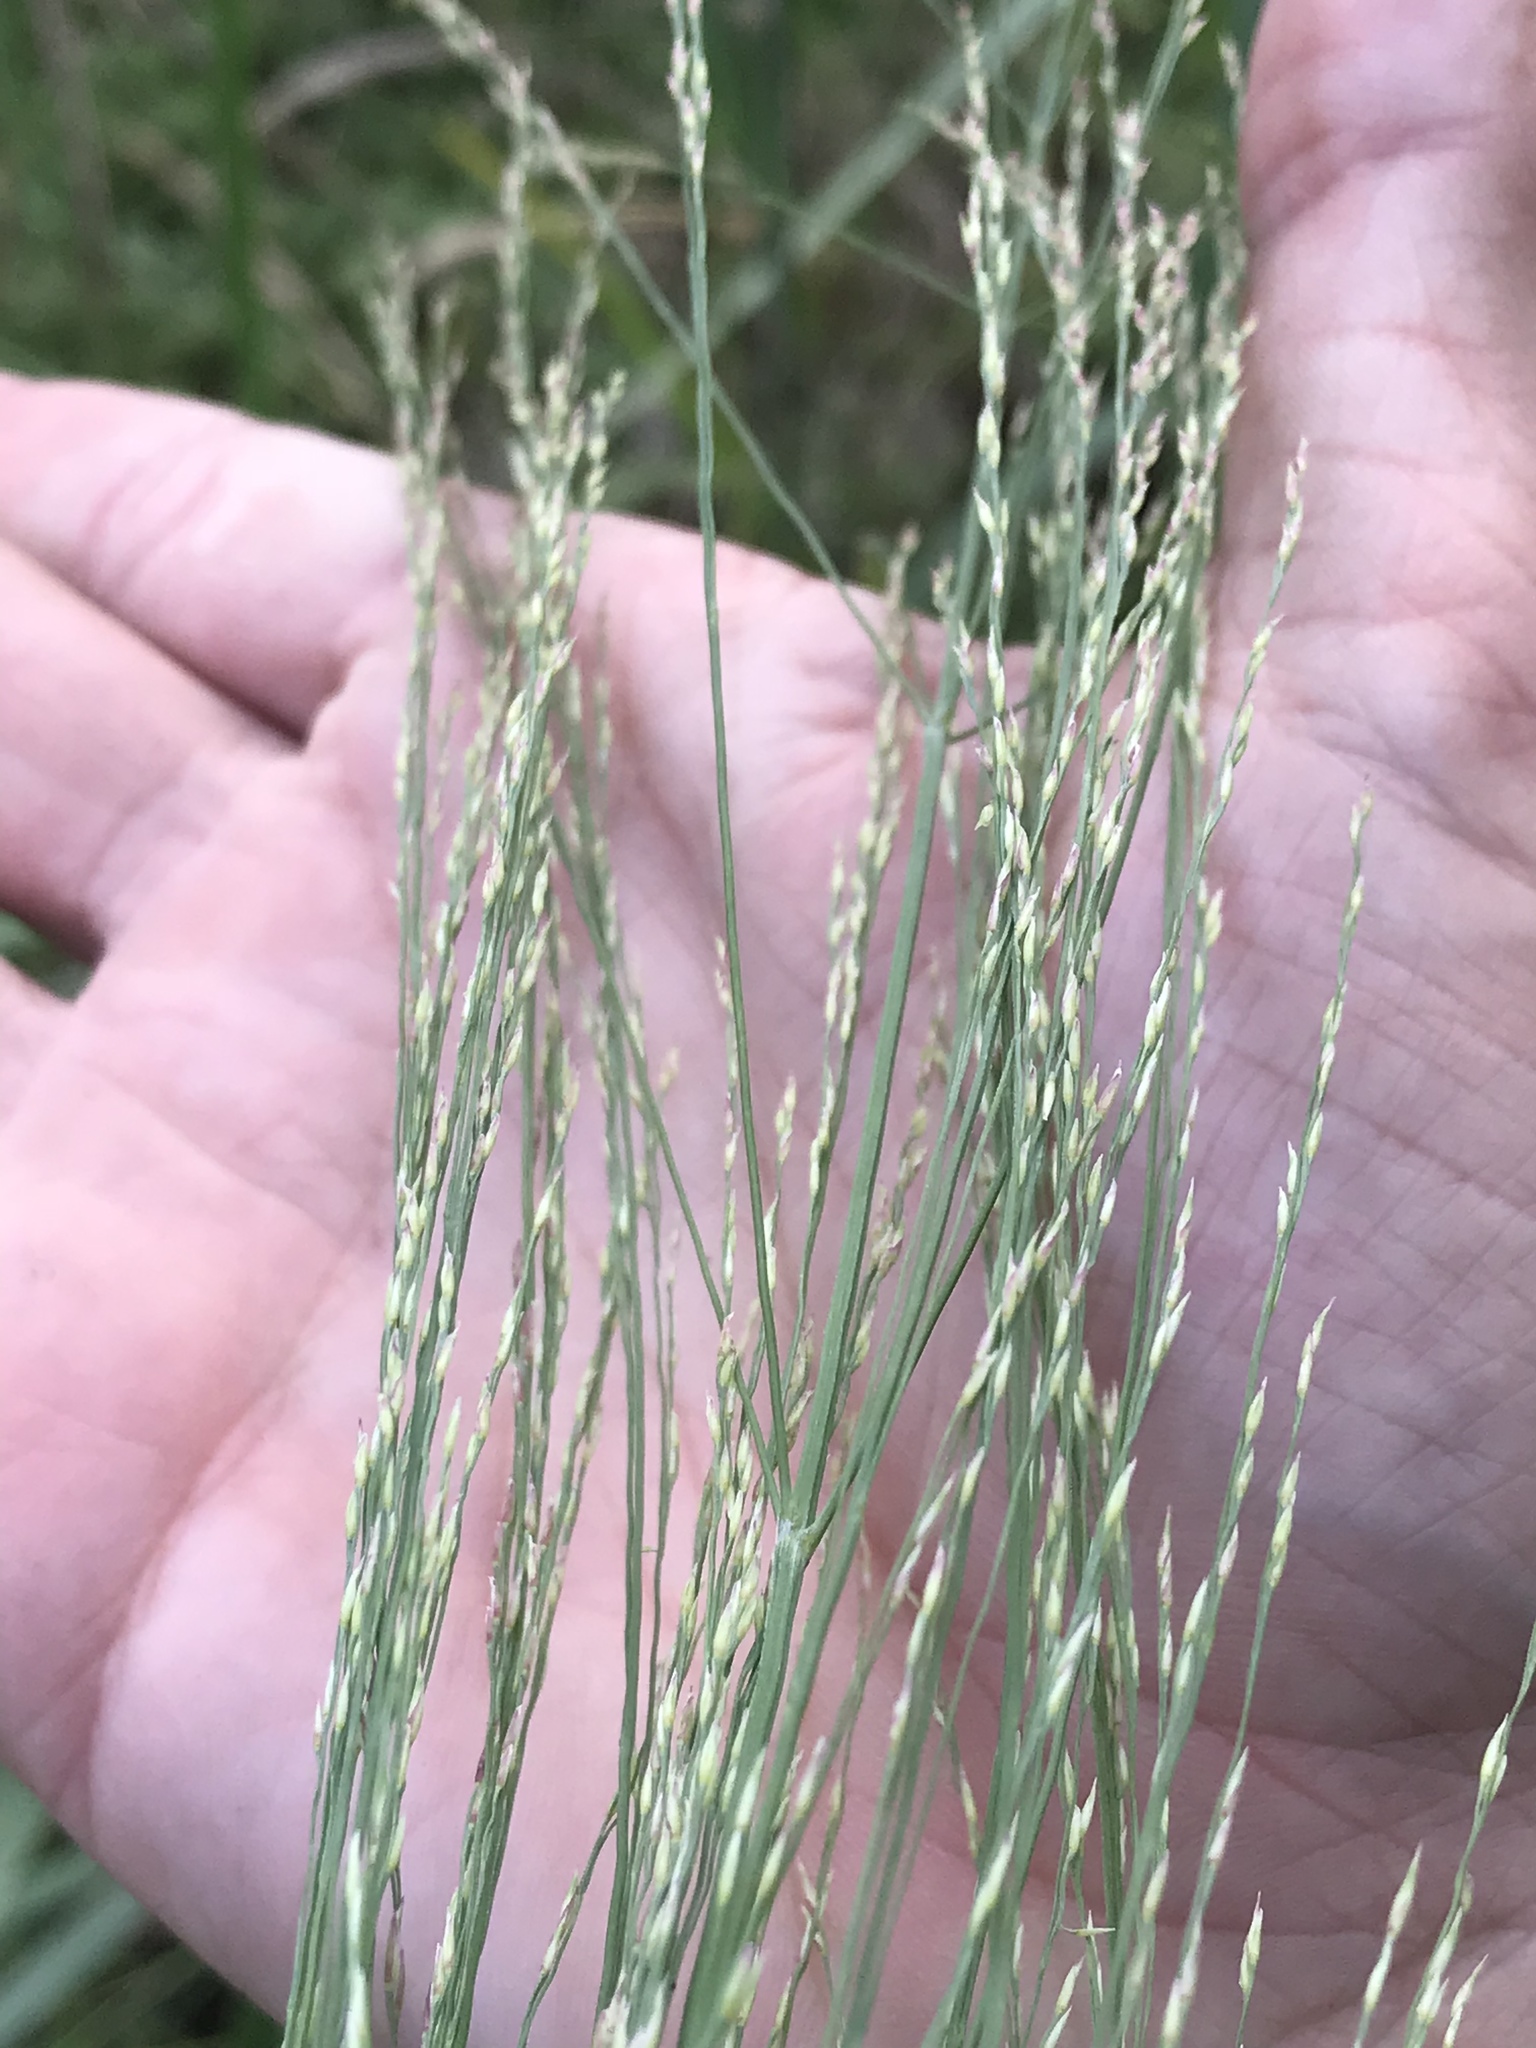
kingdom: Plantae
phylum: Tracheophyta
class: Liliopsida
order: Poales
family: Poaceae
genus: Panicum
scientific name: Panicum virgatum
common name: Switchgrass
